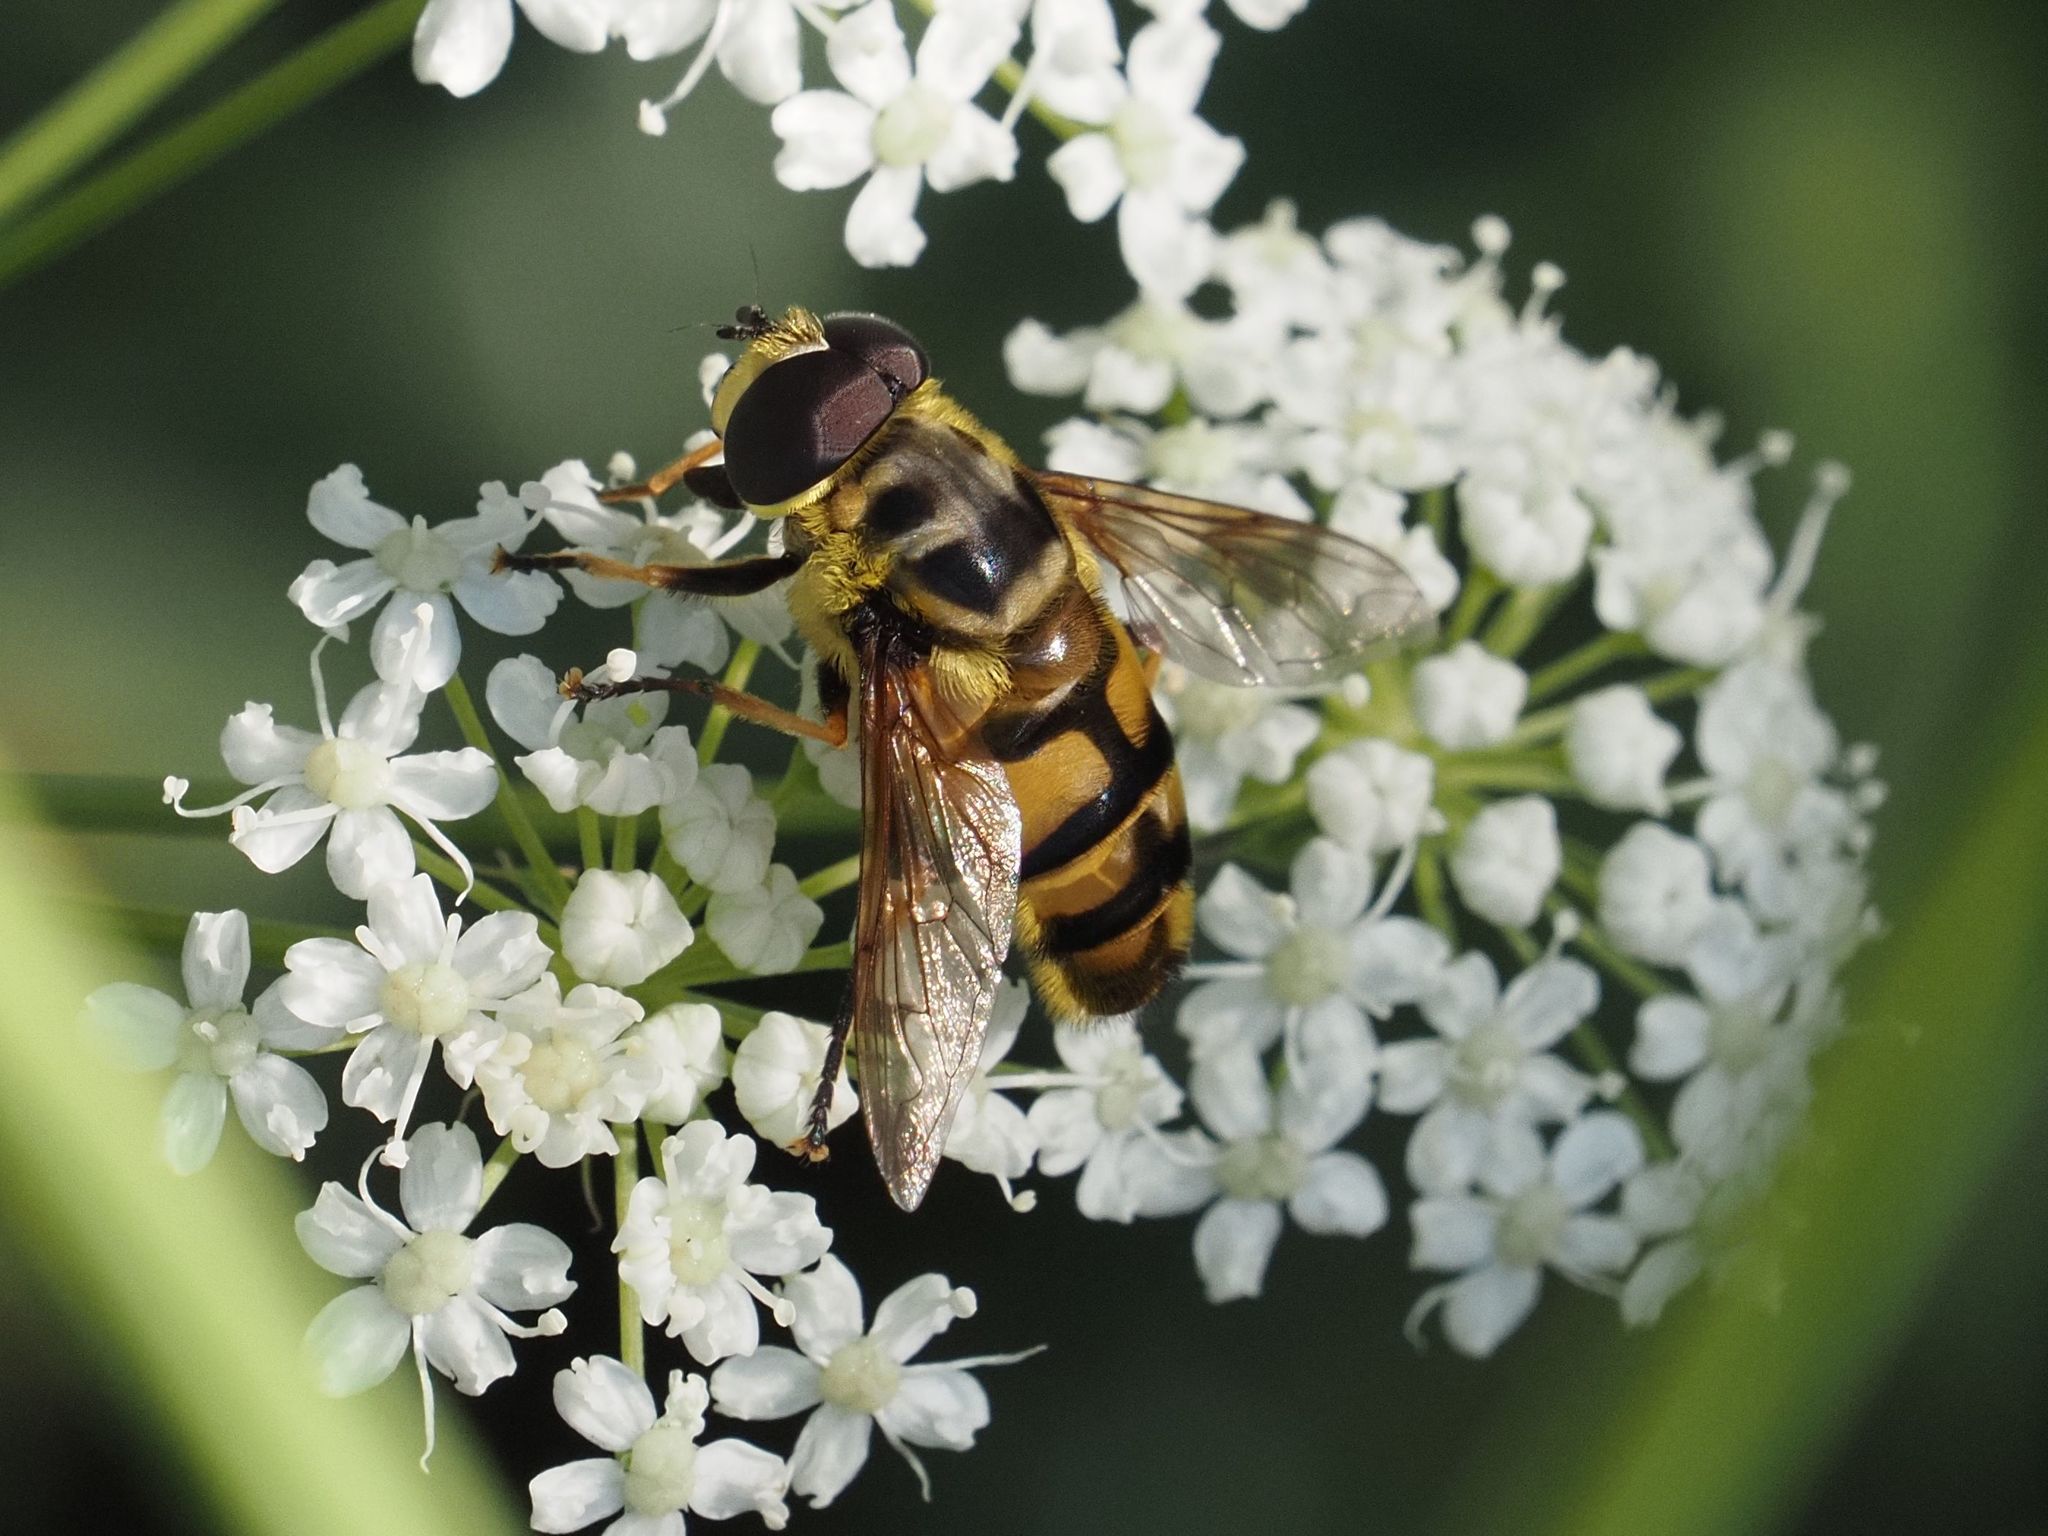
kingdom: Animalia
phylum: Arthropoda
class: Insecta
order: Diptera
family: Syrphidae
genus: Myathropa
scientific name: Myathropa florea
